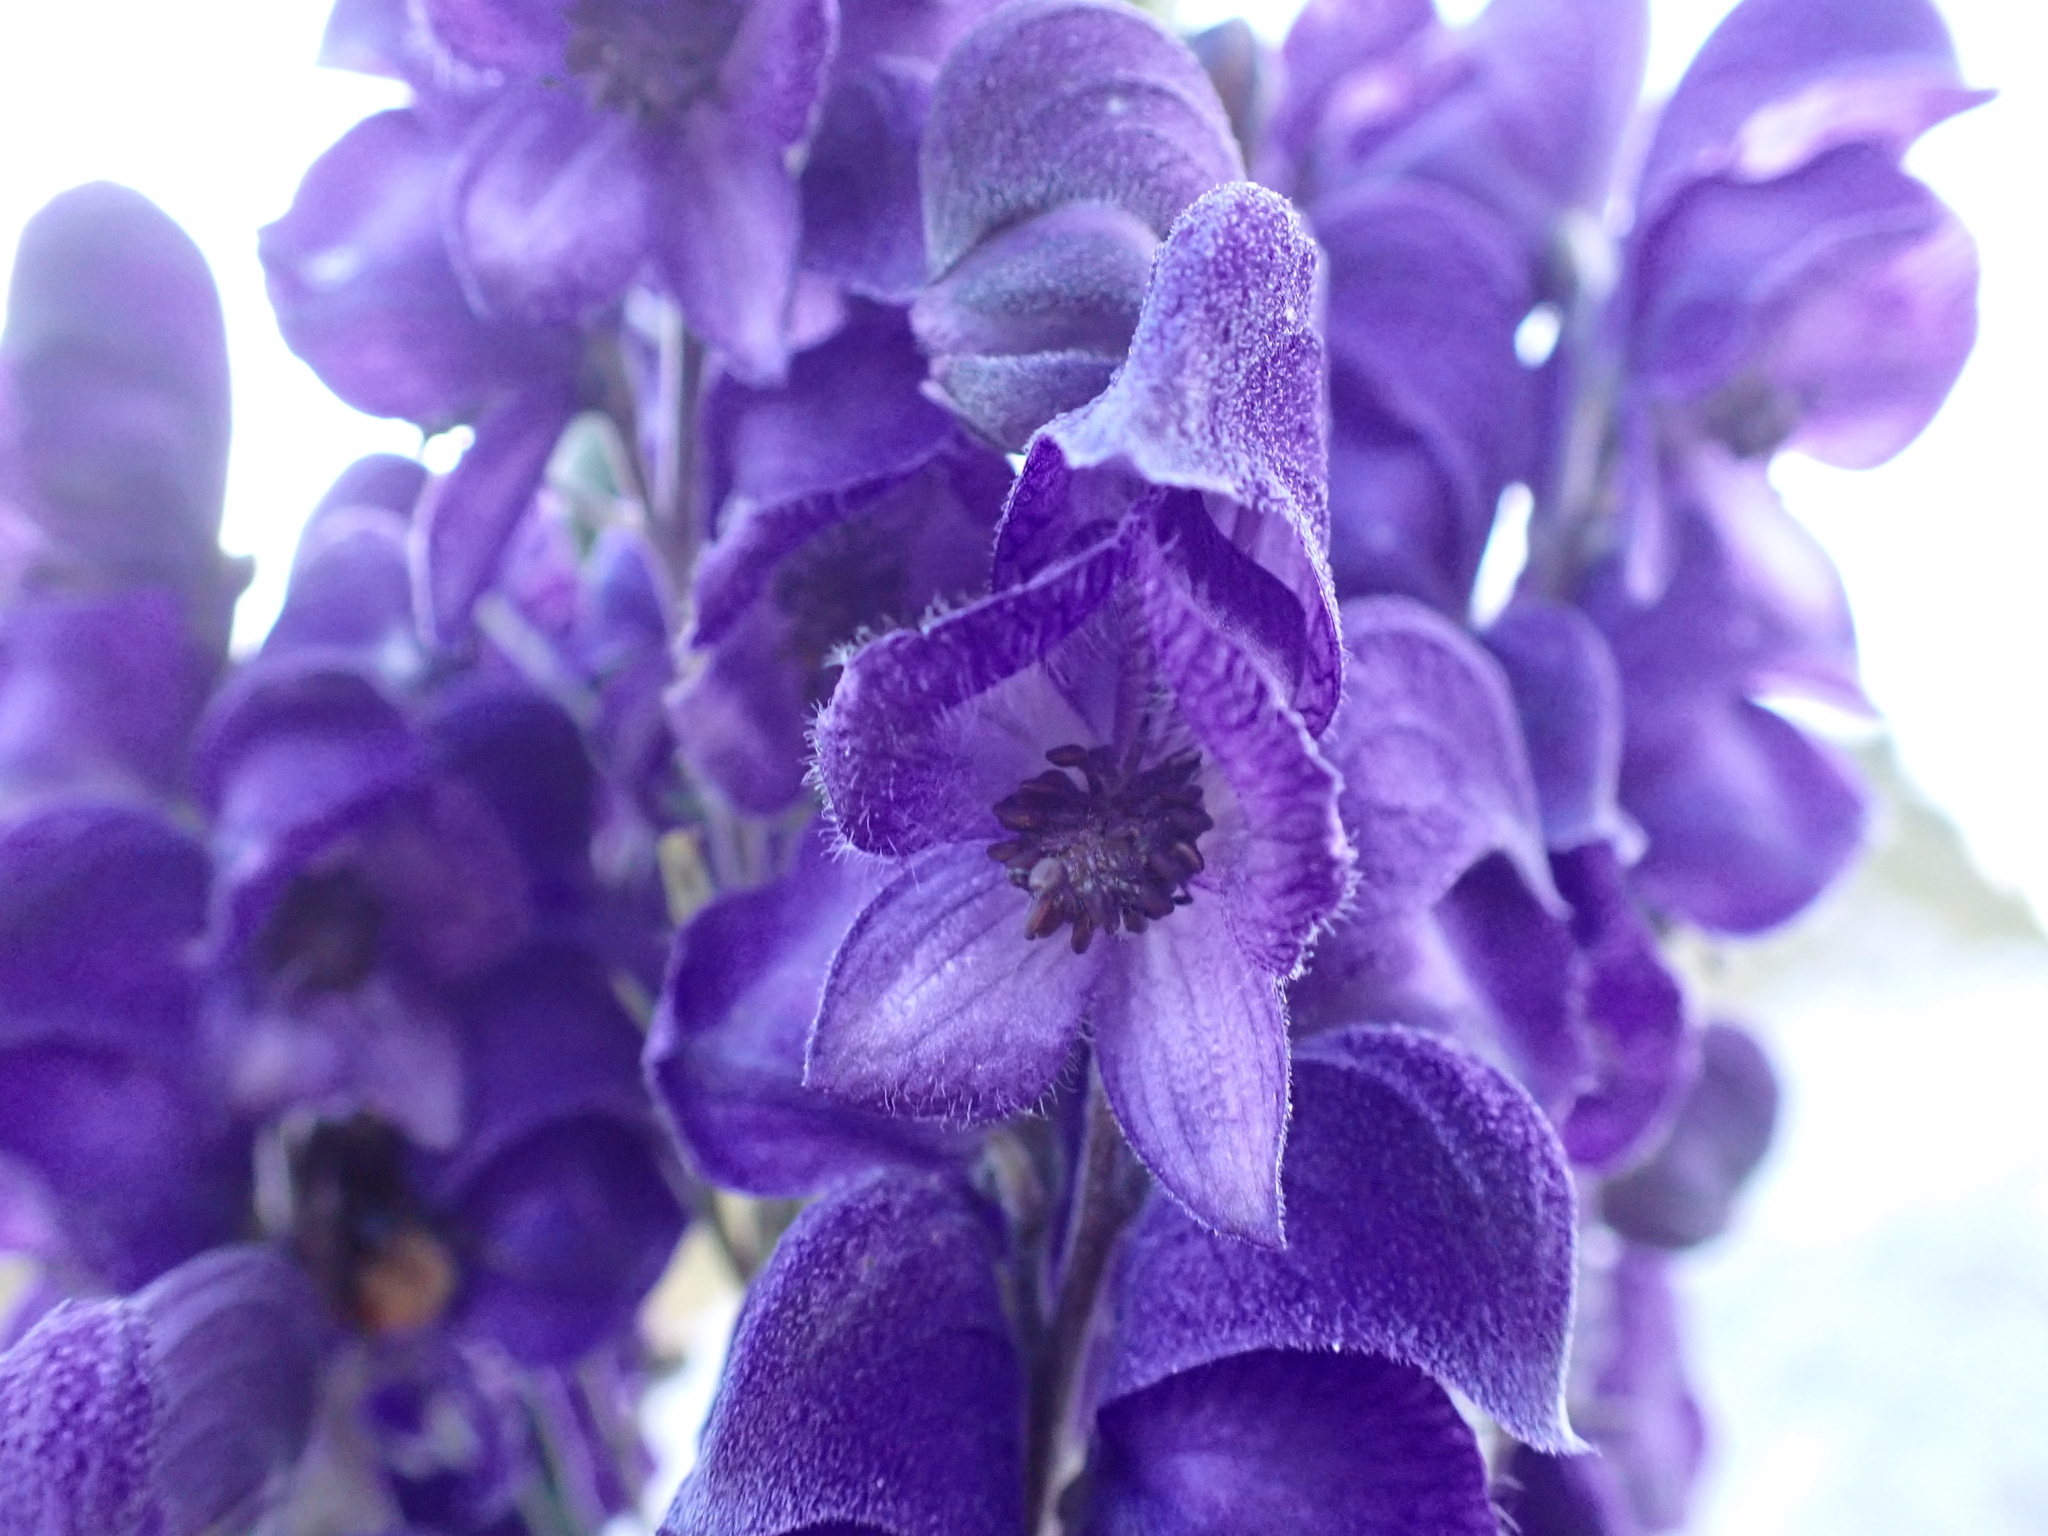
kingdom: Plantae
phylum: Tracheophyta
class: Magnoliopsida
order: Ranunculales
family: Ranunculaceae
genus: Aconitum
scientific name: Aconitum napellus
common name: Garden monkshood
